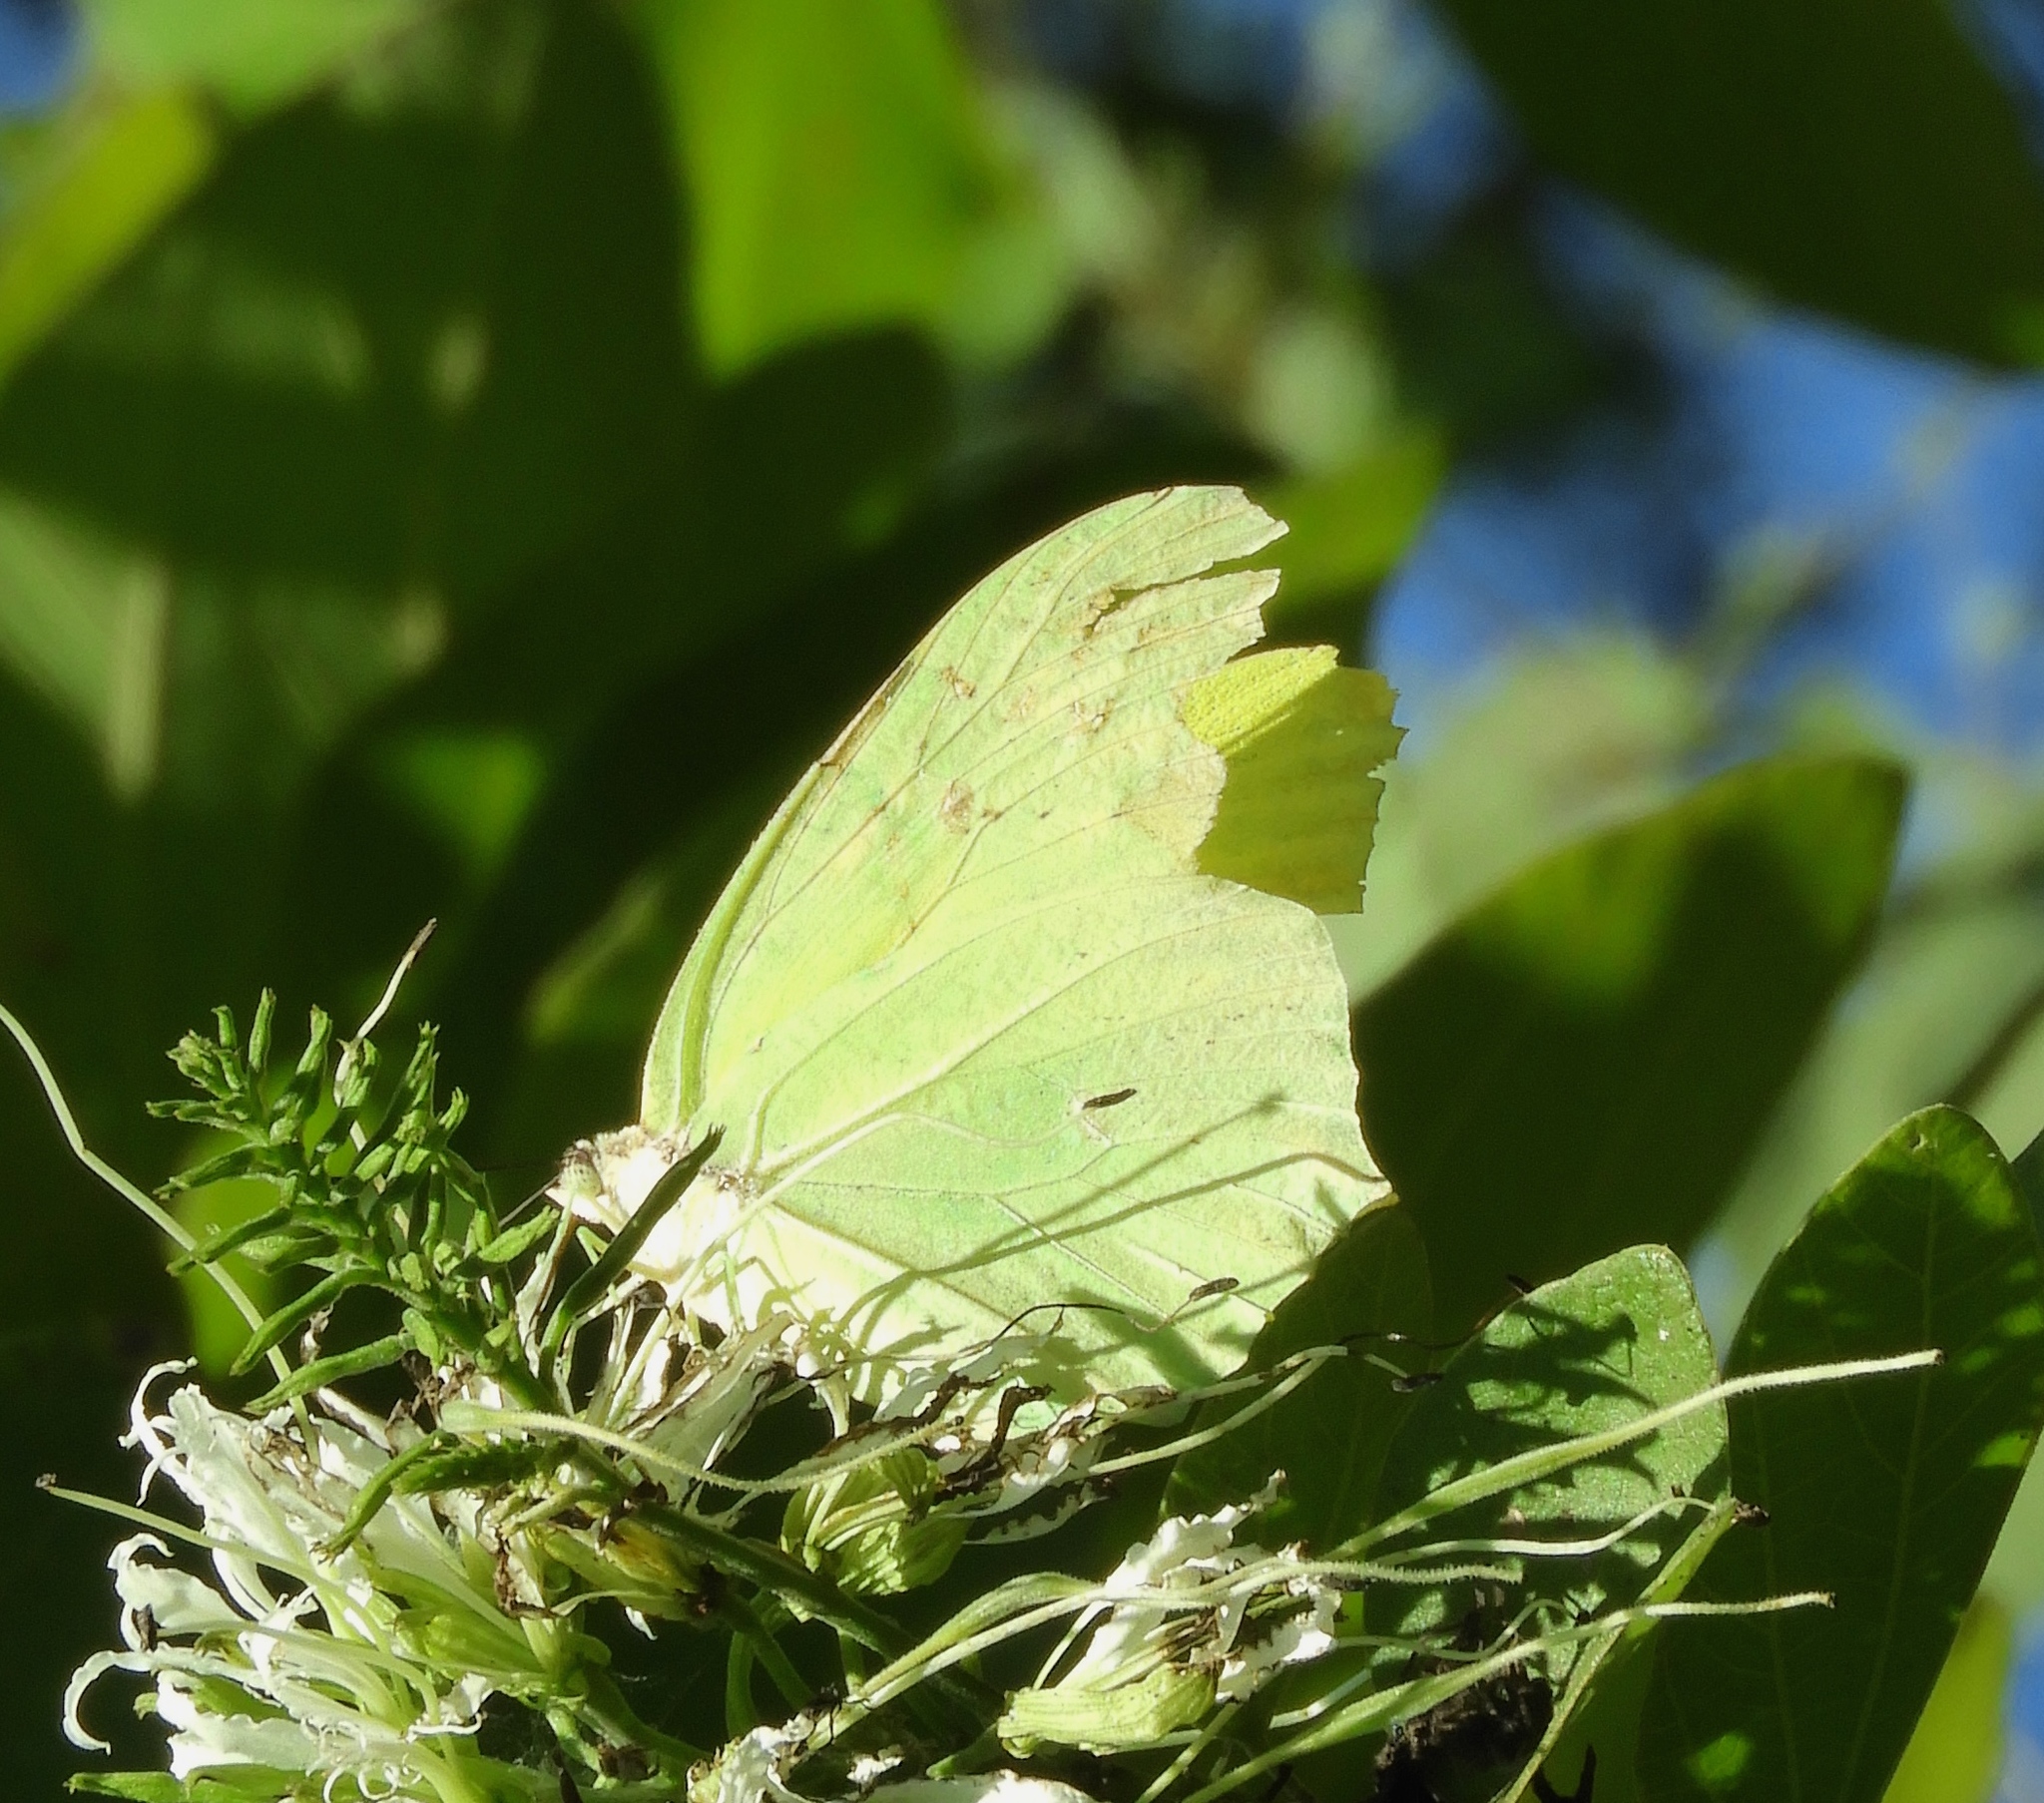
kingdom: Animalia
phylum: Arthropoda
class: Insecta
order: Lepidoptera
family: Pieridae
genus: Anteos
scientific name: Anteos maerula
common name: Angled sulphur
